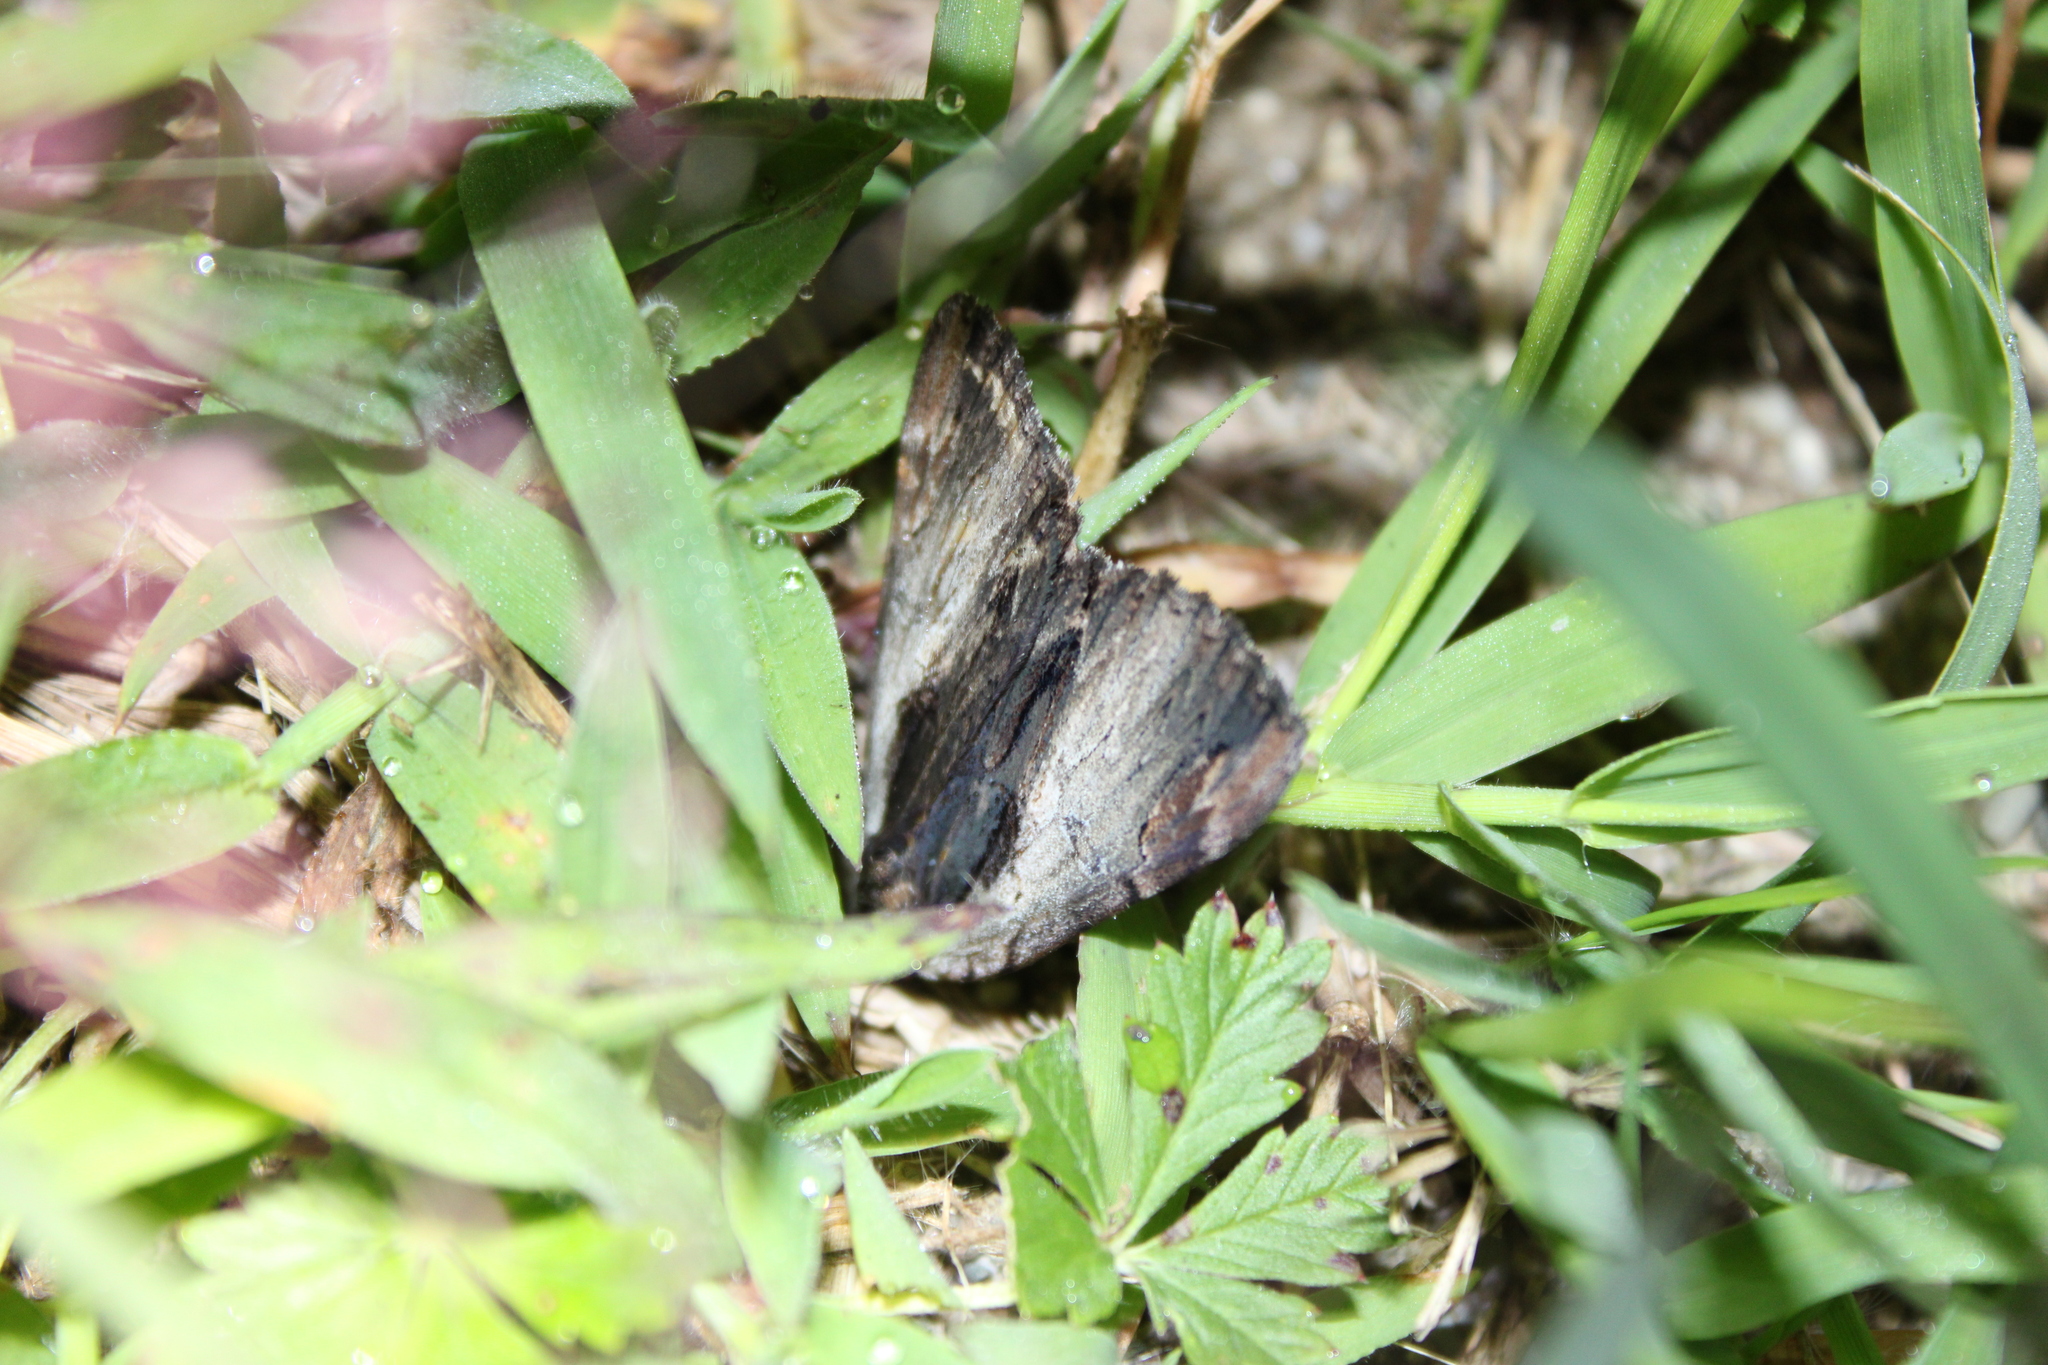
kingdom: Animalia
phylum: Arthropoda
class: Insecta
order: Lepidoptera
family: Erebidae
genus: Catocala
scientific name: Catocala ultronia
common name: Ultronia underwing
